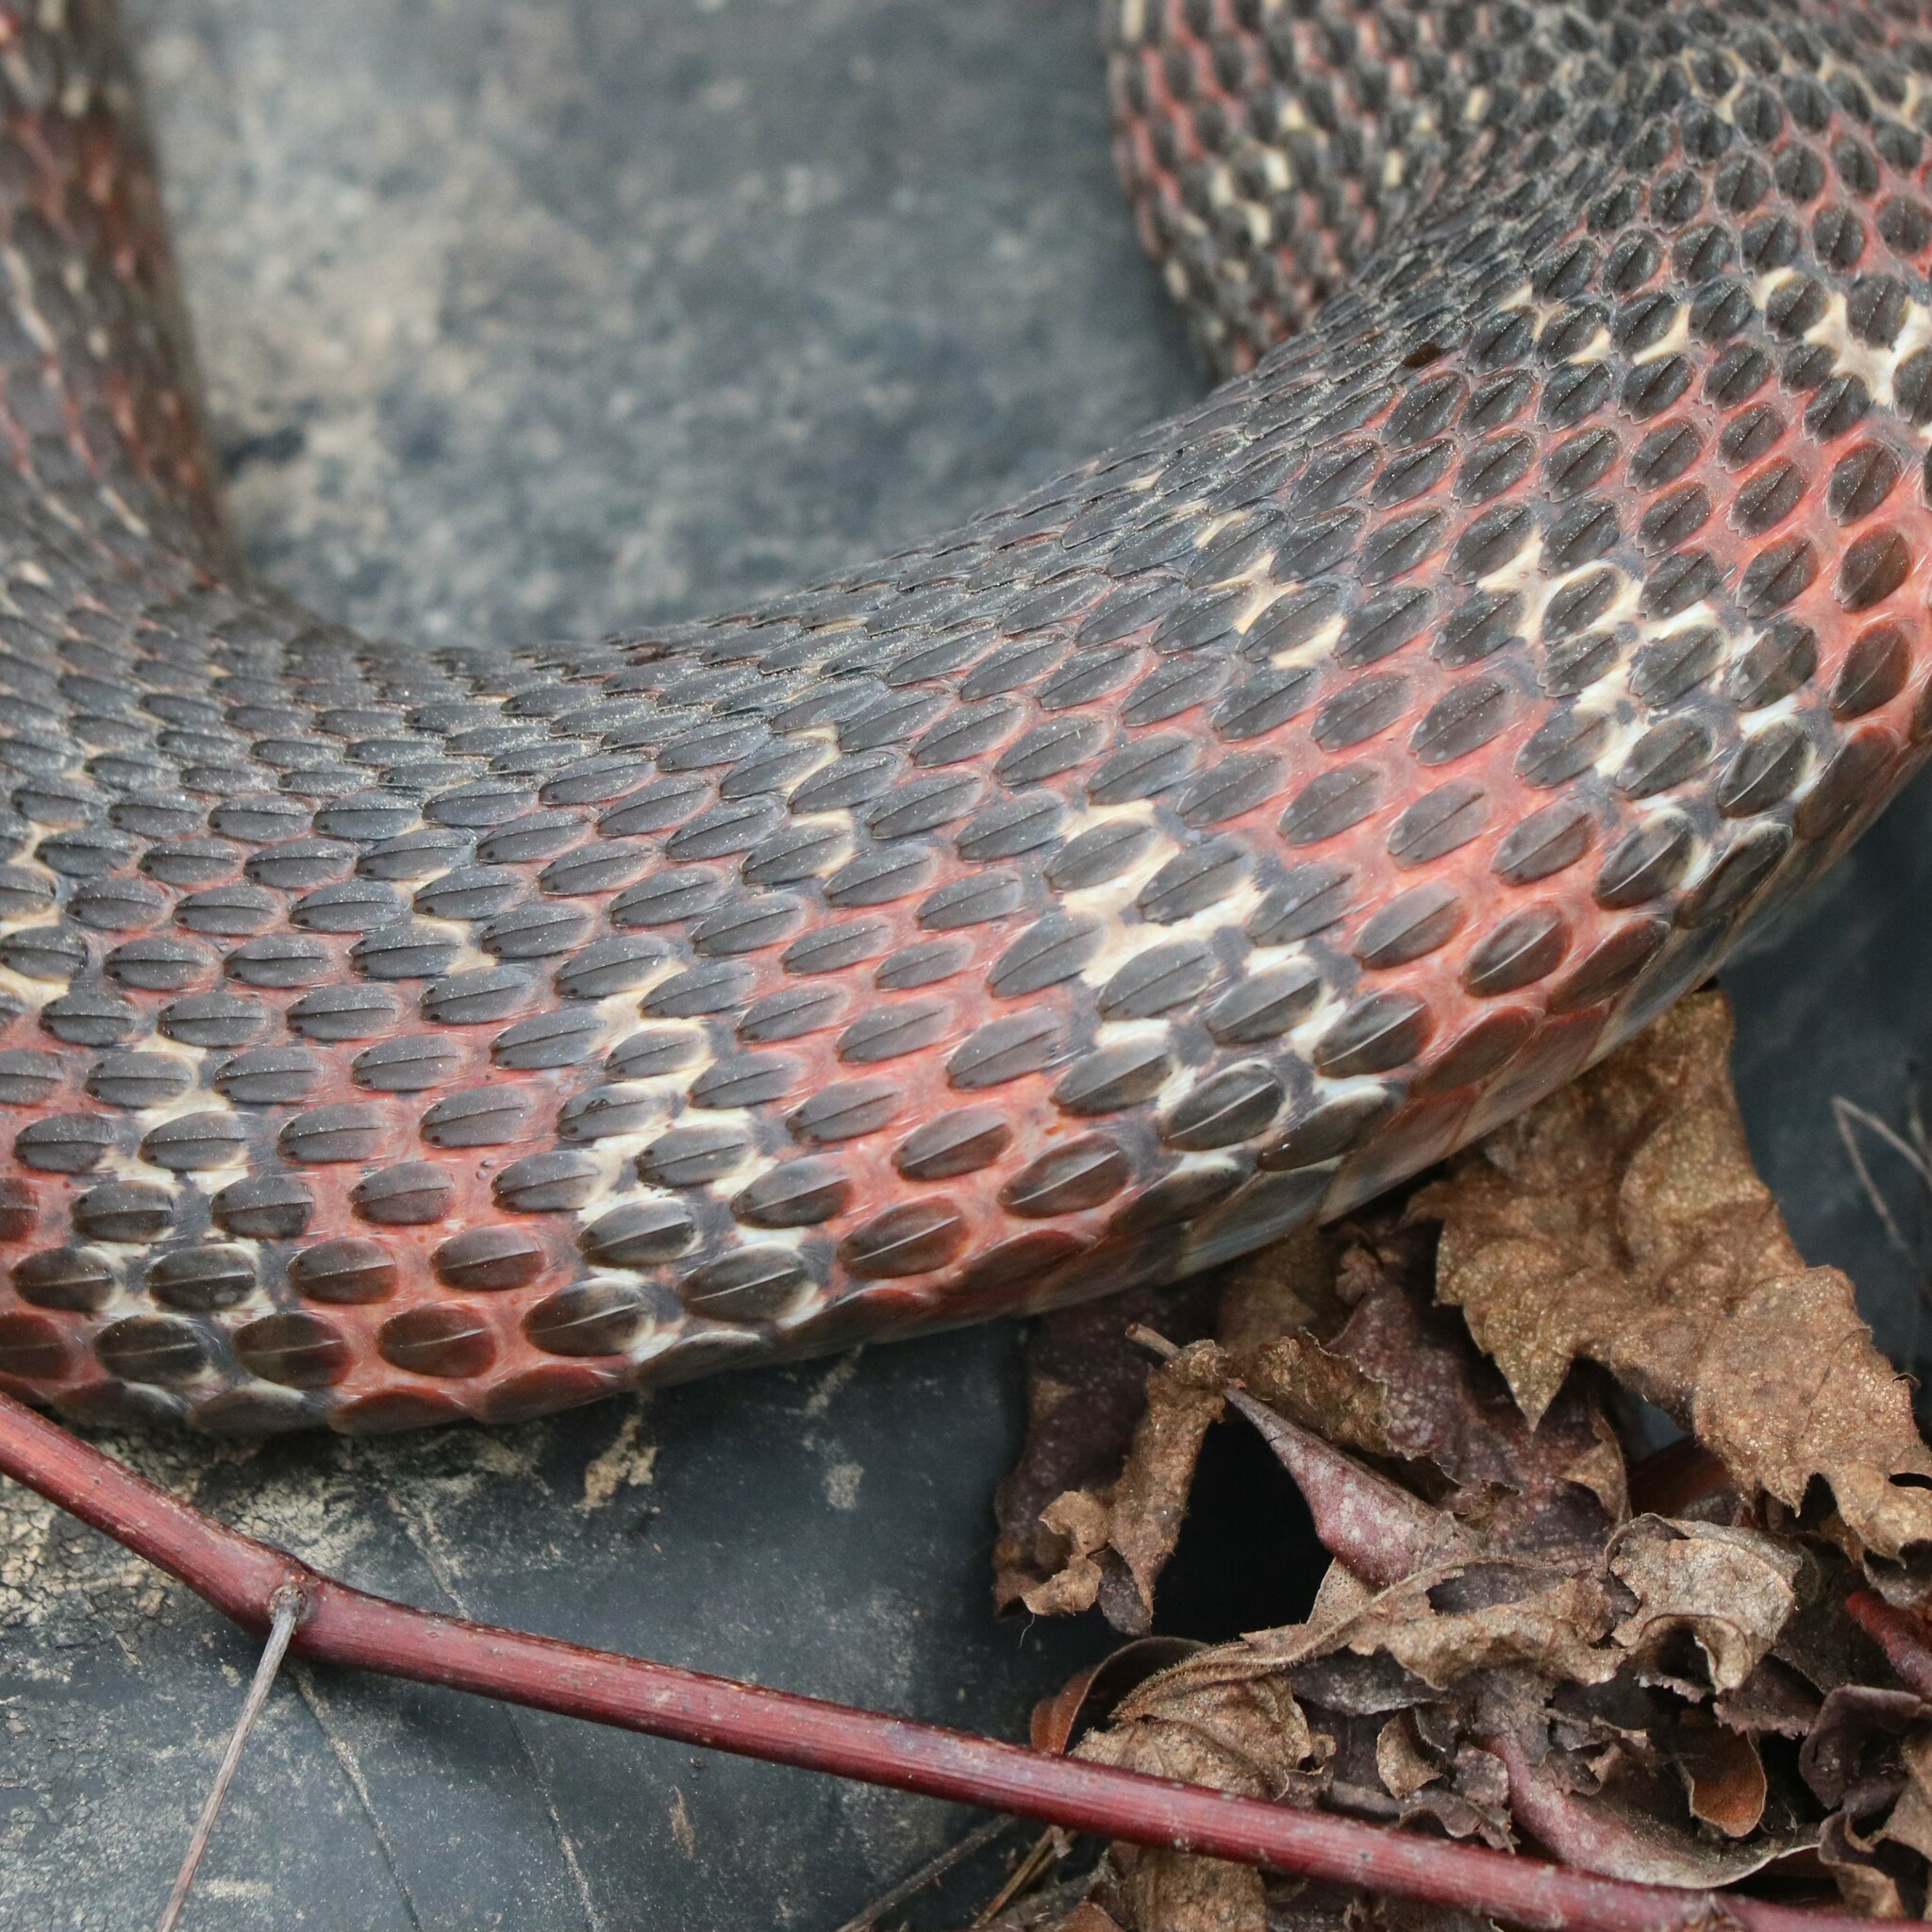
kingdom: Animalia
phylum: Chordata
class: Squamata
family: Colubridae
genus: Nerodia
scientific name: Nerodia sipedon
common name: Northern water snake
